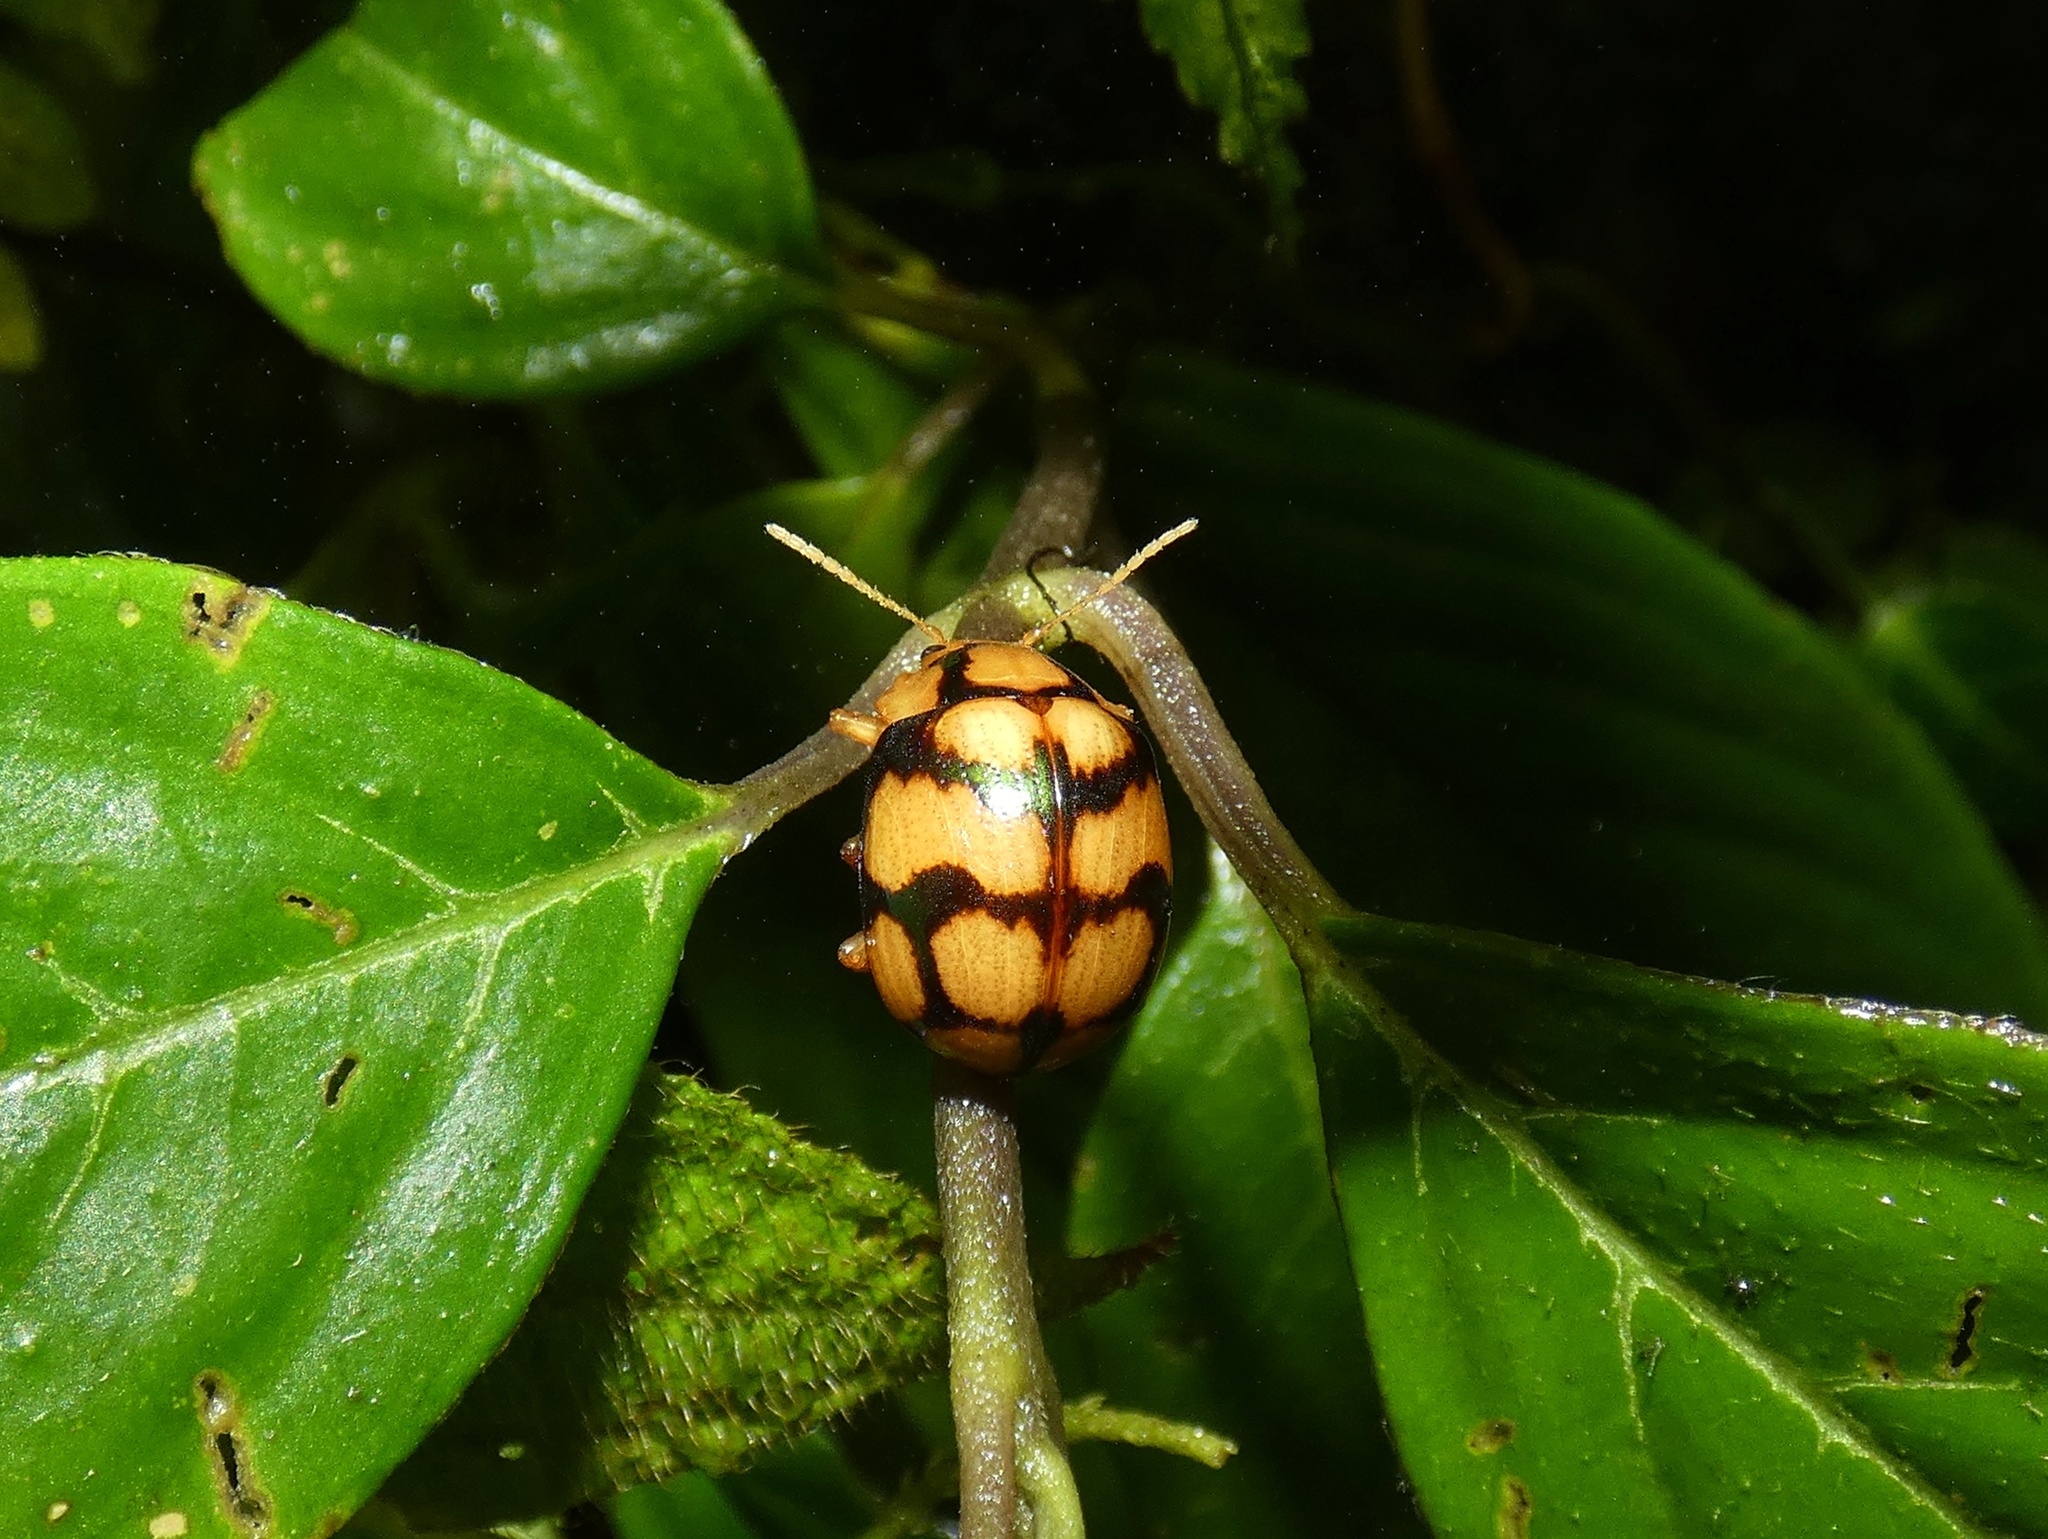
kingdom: Animalia
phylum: Arthropoda
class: Insecta
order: Coleoptera
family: Chrysomelidae
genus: Platyphora
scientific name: Platyphora
